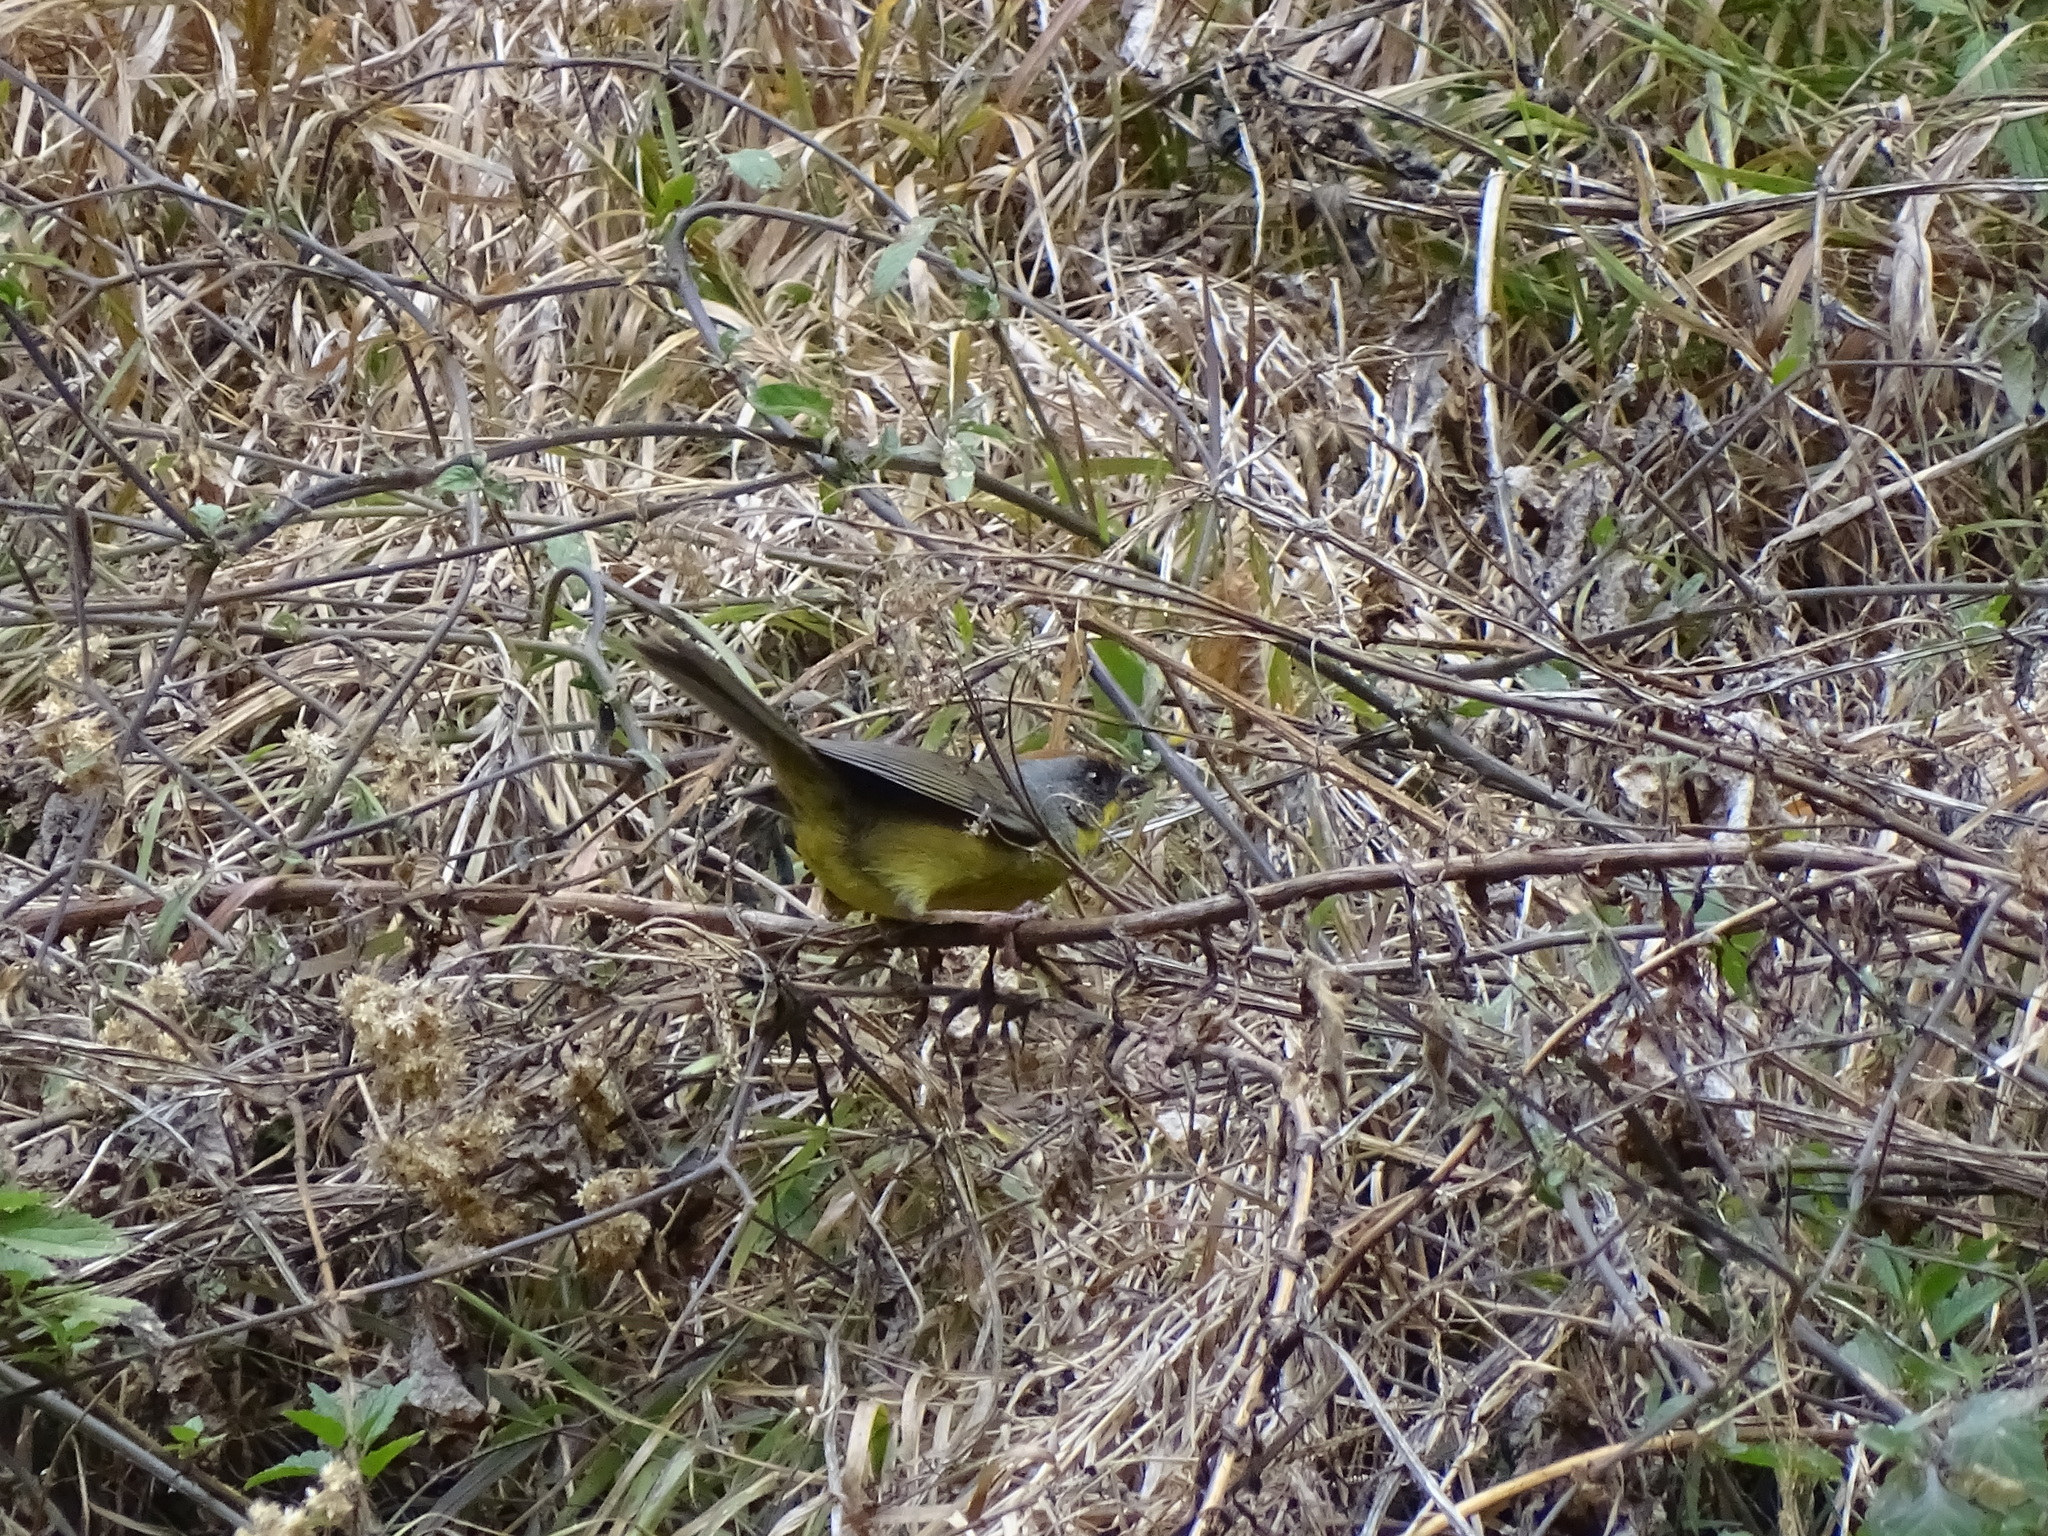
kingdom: Animalia
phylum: Chordata
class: Aves
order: Passeriformes
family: Passerellidae
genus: Atlapetes
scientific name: Atlapetes pileatus
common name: Rufous-capped brush-finch
